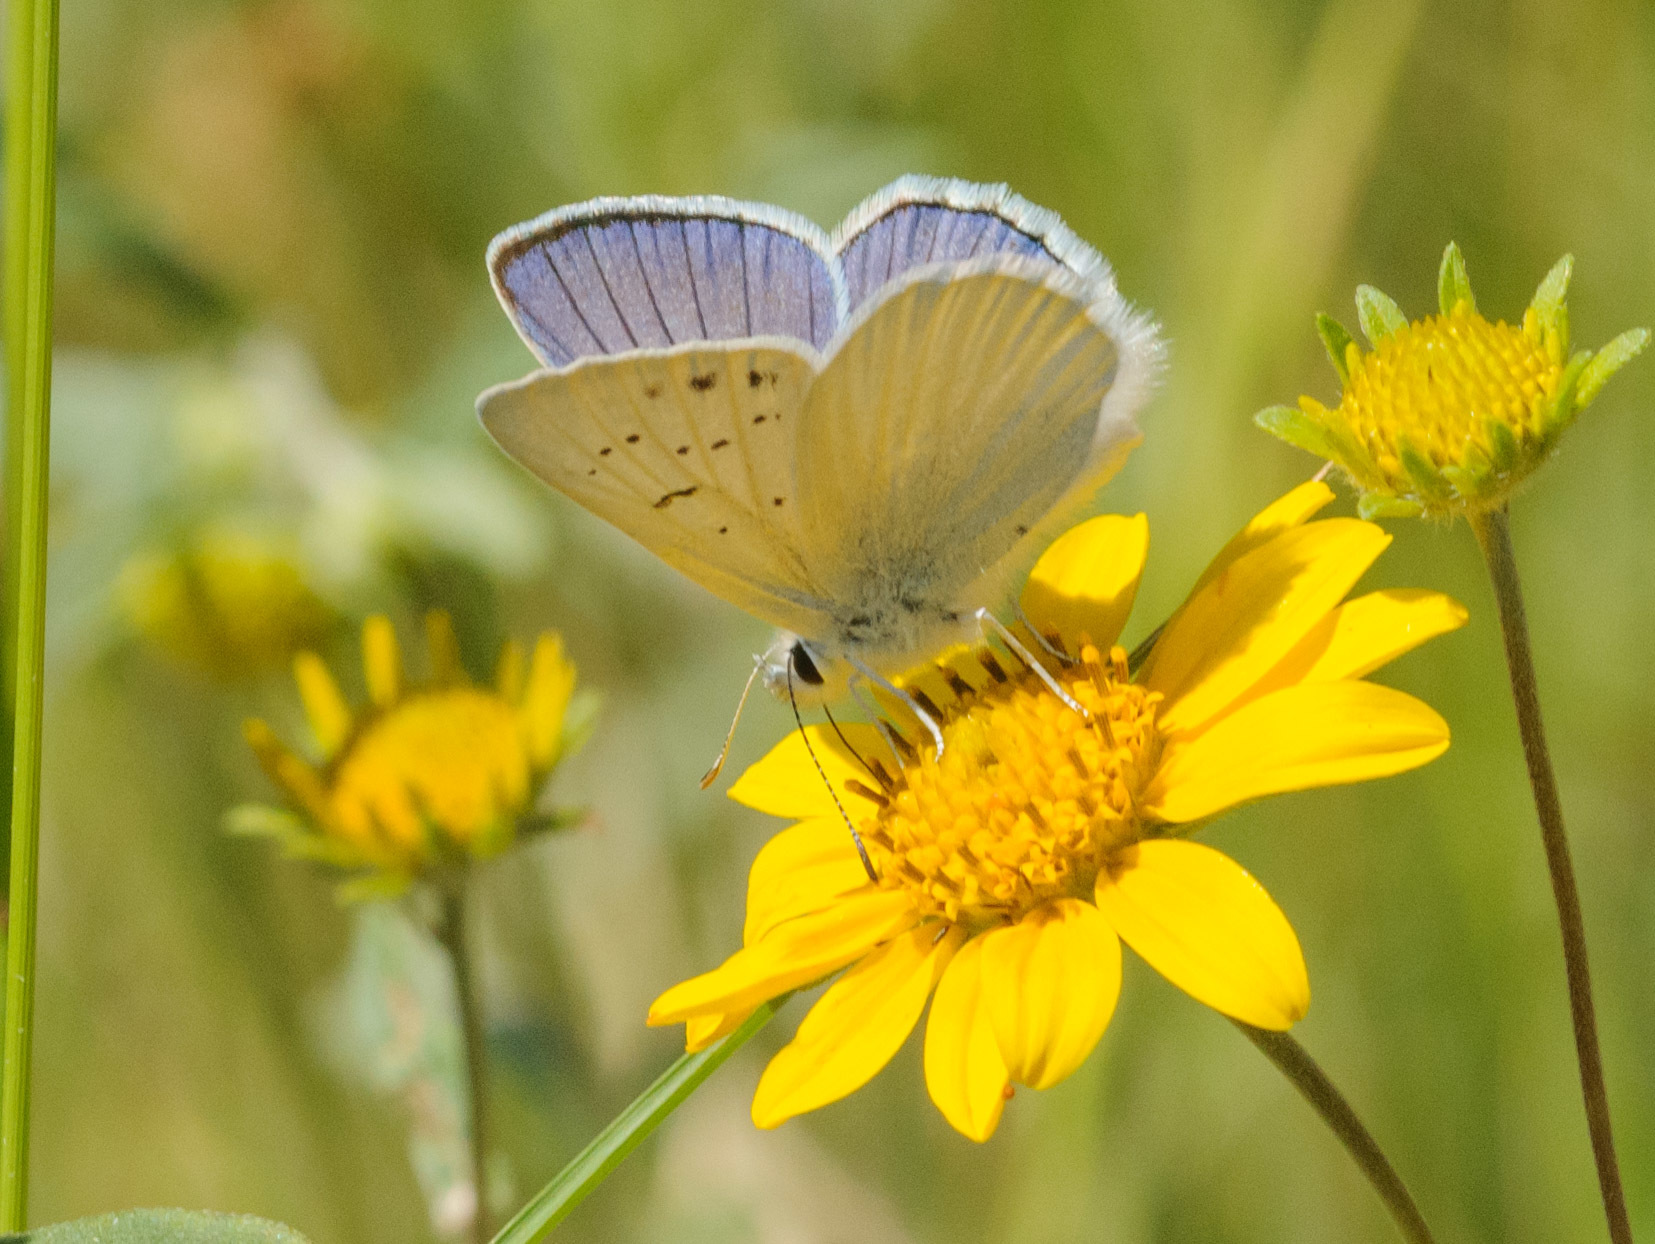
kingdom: Animalia
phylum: Arthropoda
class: Insecta
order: Lepidoptera
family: Lycaenidae
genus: Tharsalea
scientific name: Tharsalea heteronea
